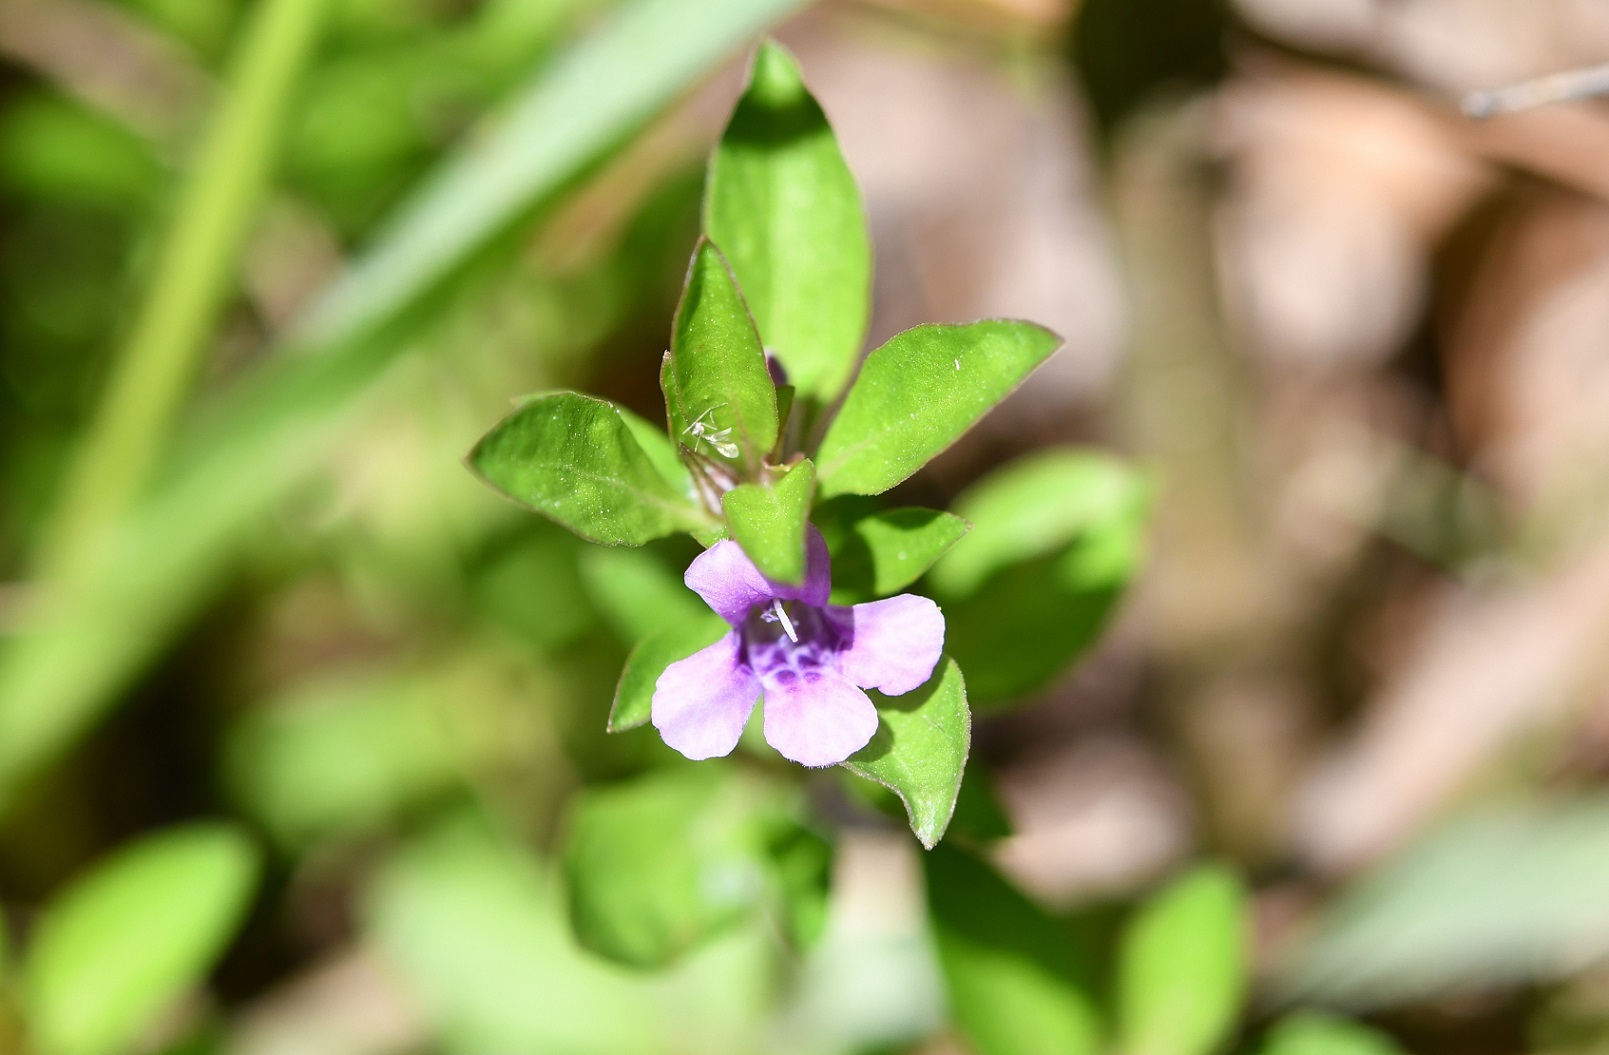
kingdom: Plantae
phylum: Tracheophyta
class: Magnoliopsida
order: Lamiales
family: Acanthaceae
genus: Dyschoriste
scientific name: Dyschoriste capitata
